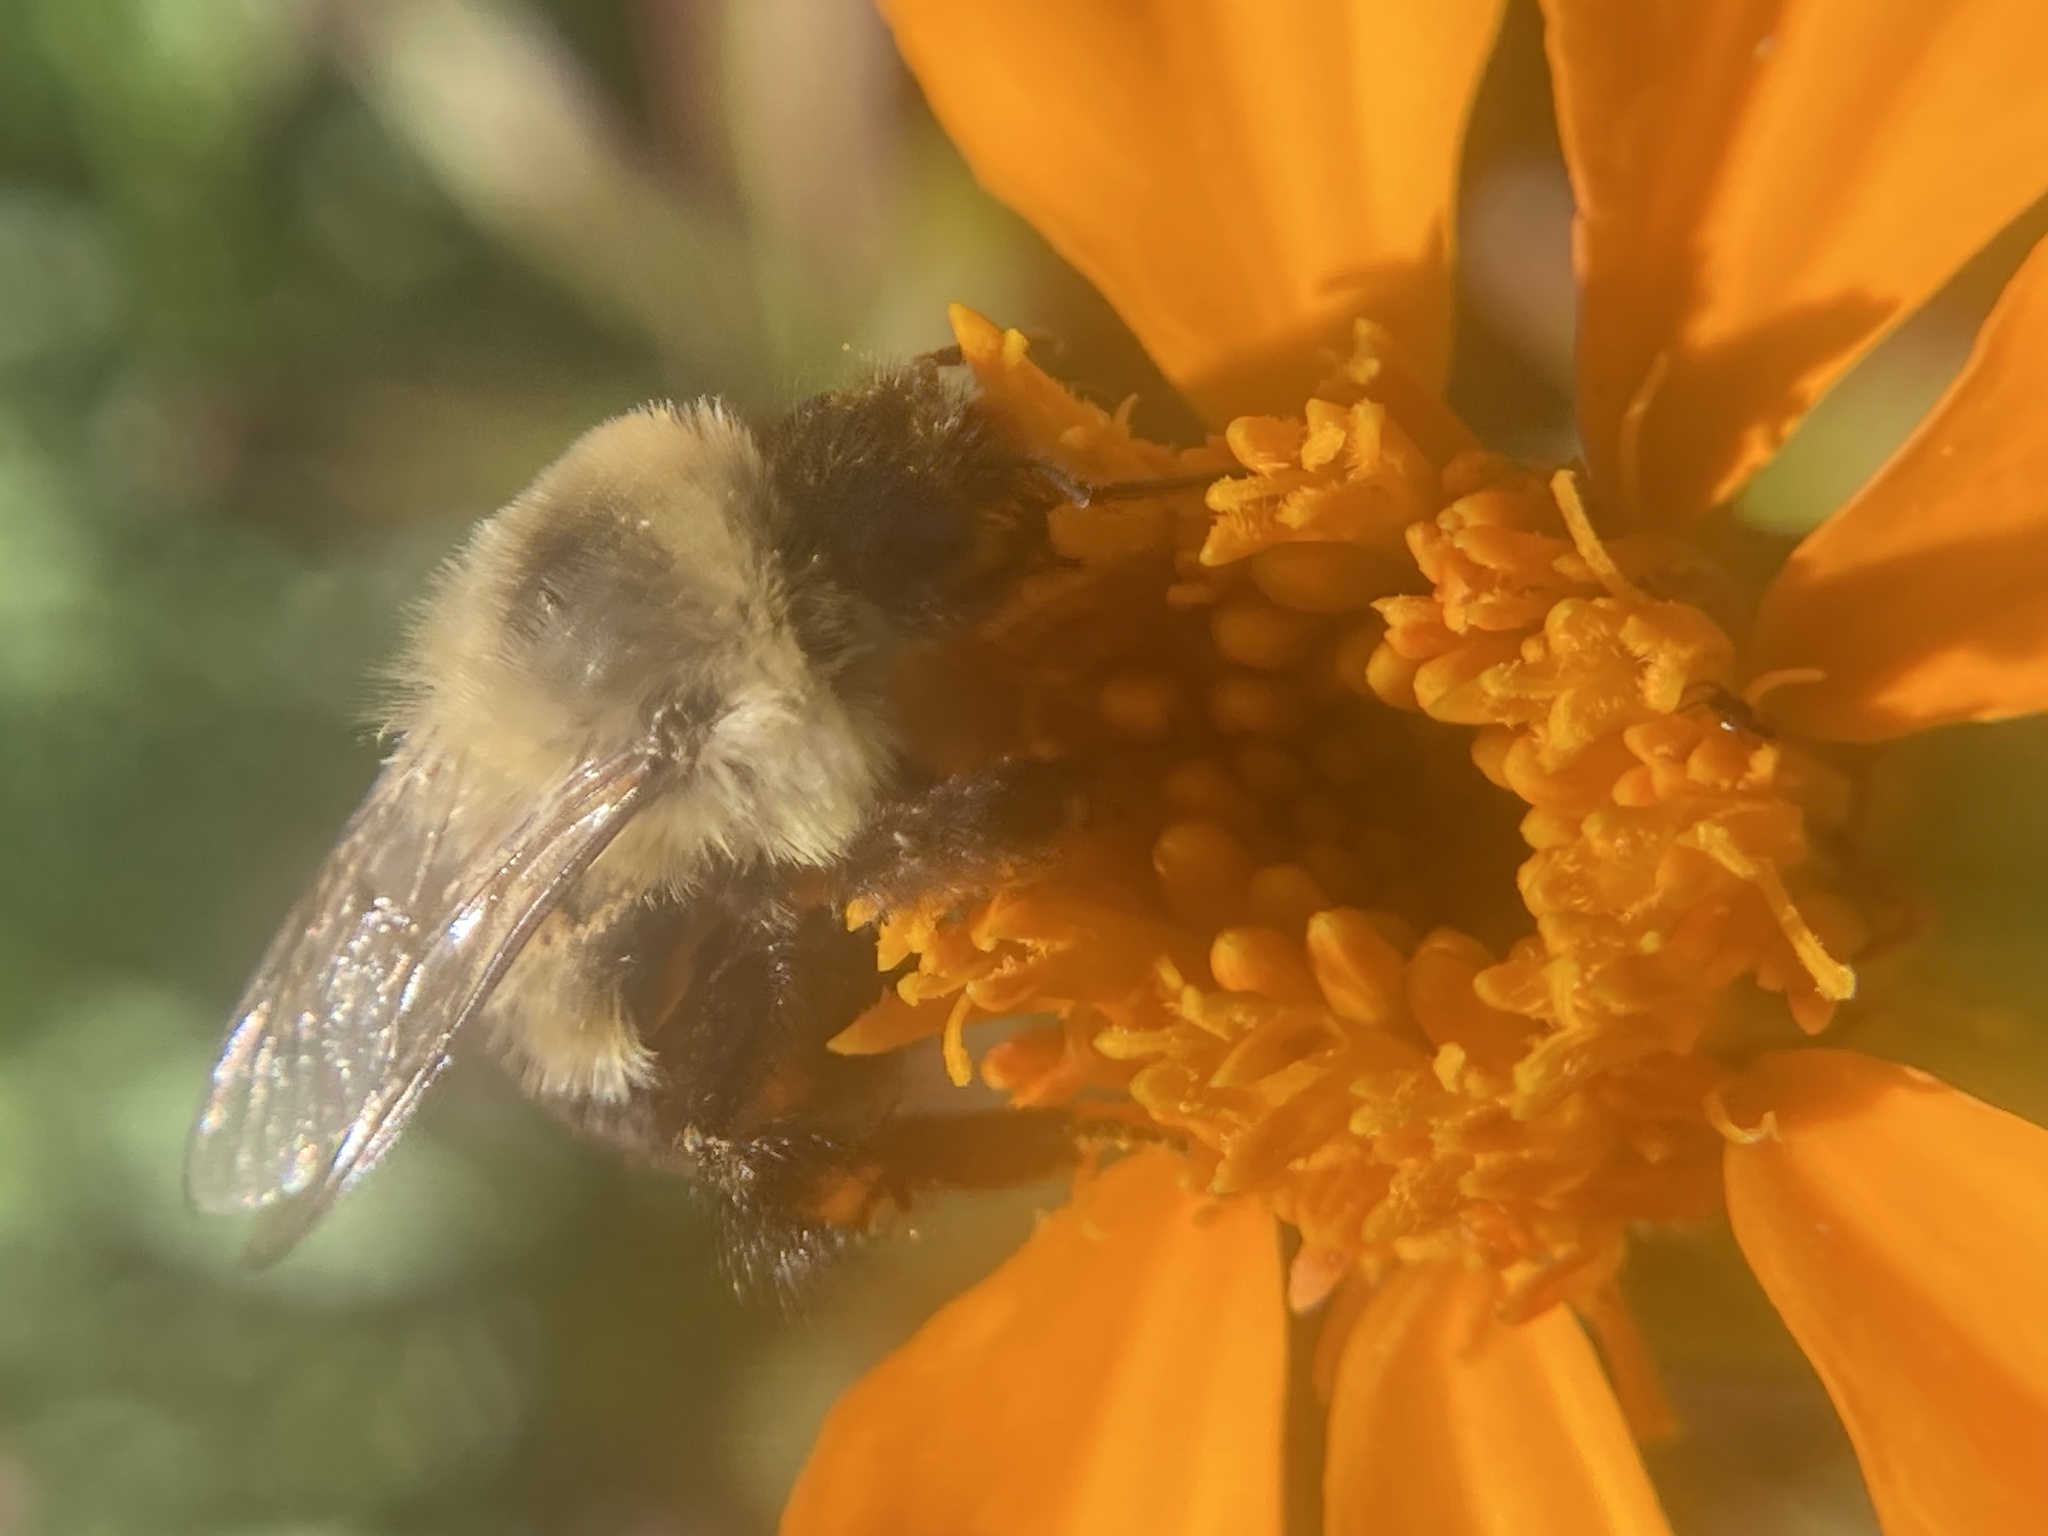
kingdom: Animalia
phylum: Arthropoda
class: Insecta
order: Hymenoptera
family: Apidae
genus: Bombus
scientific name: Bombus impatiens
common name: Common eastern bumble bee
